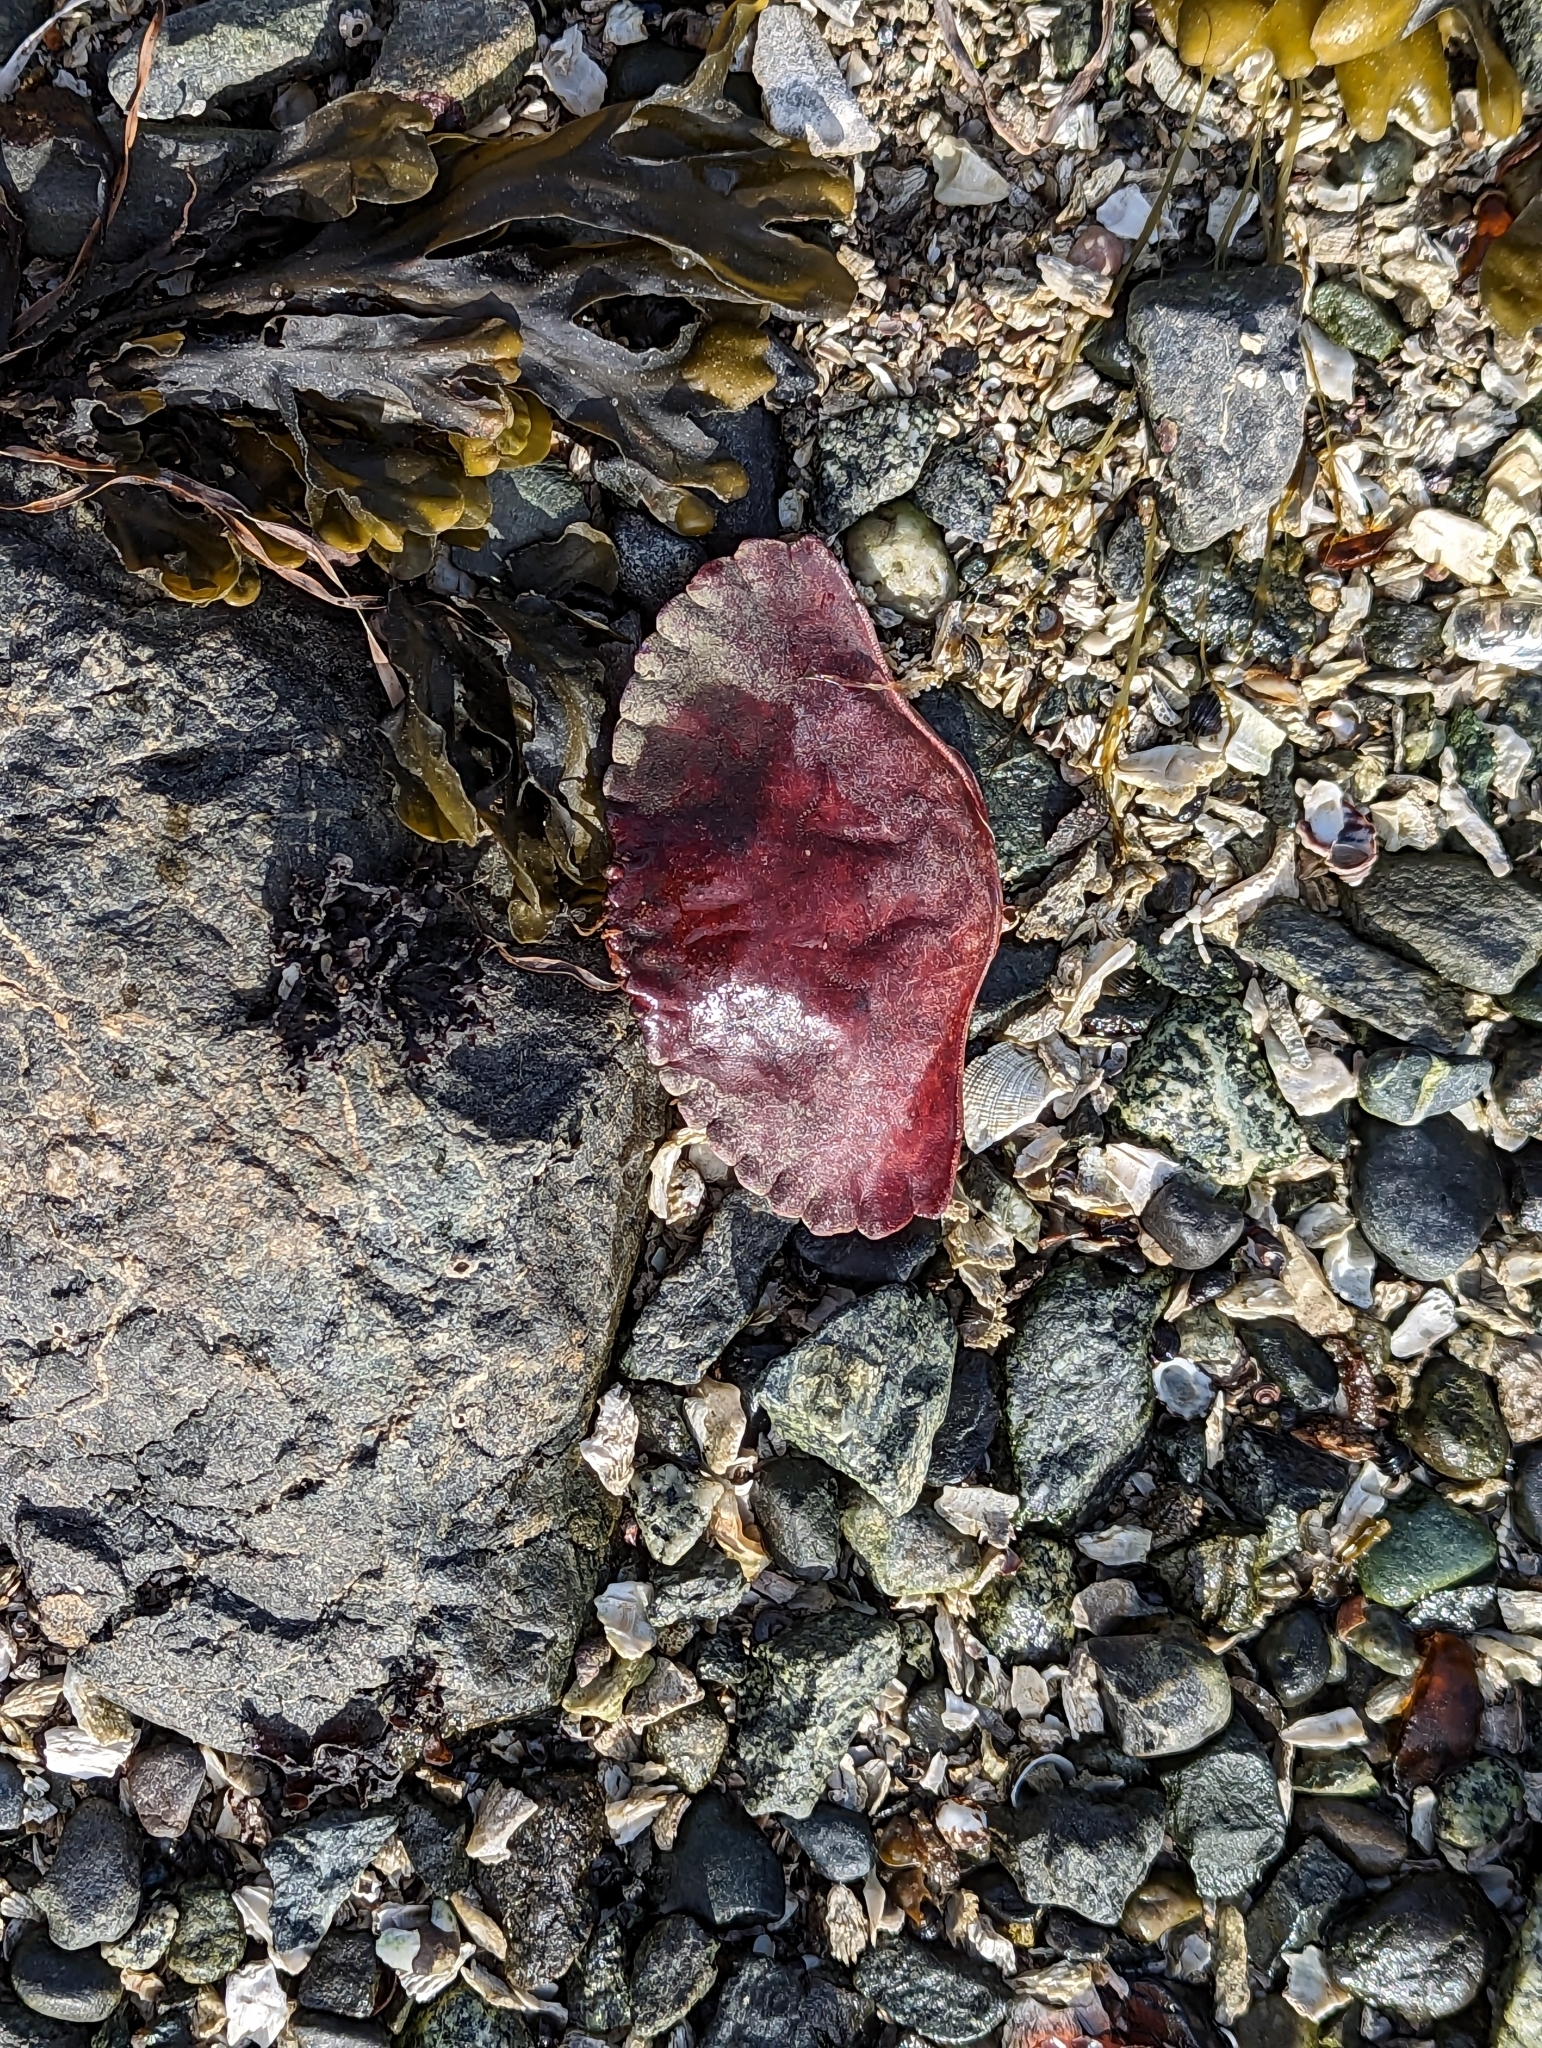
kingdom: Animalia
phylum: Arthropoda
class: Malacostraca
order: Decapoda
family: Cancridae
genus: Cancer
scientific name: Cancer productus
